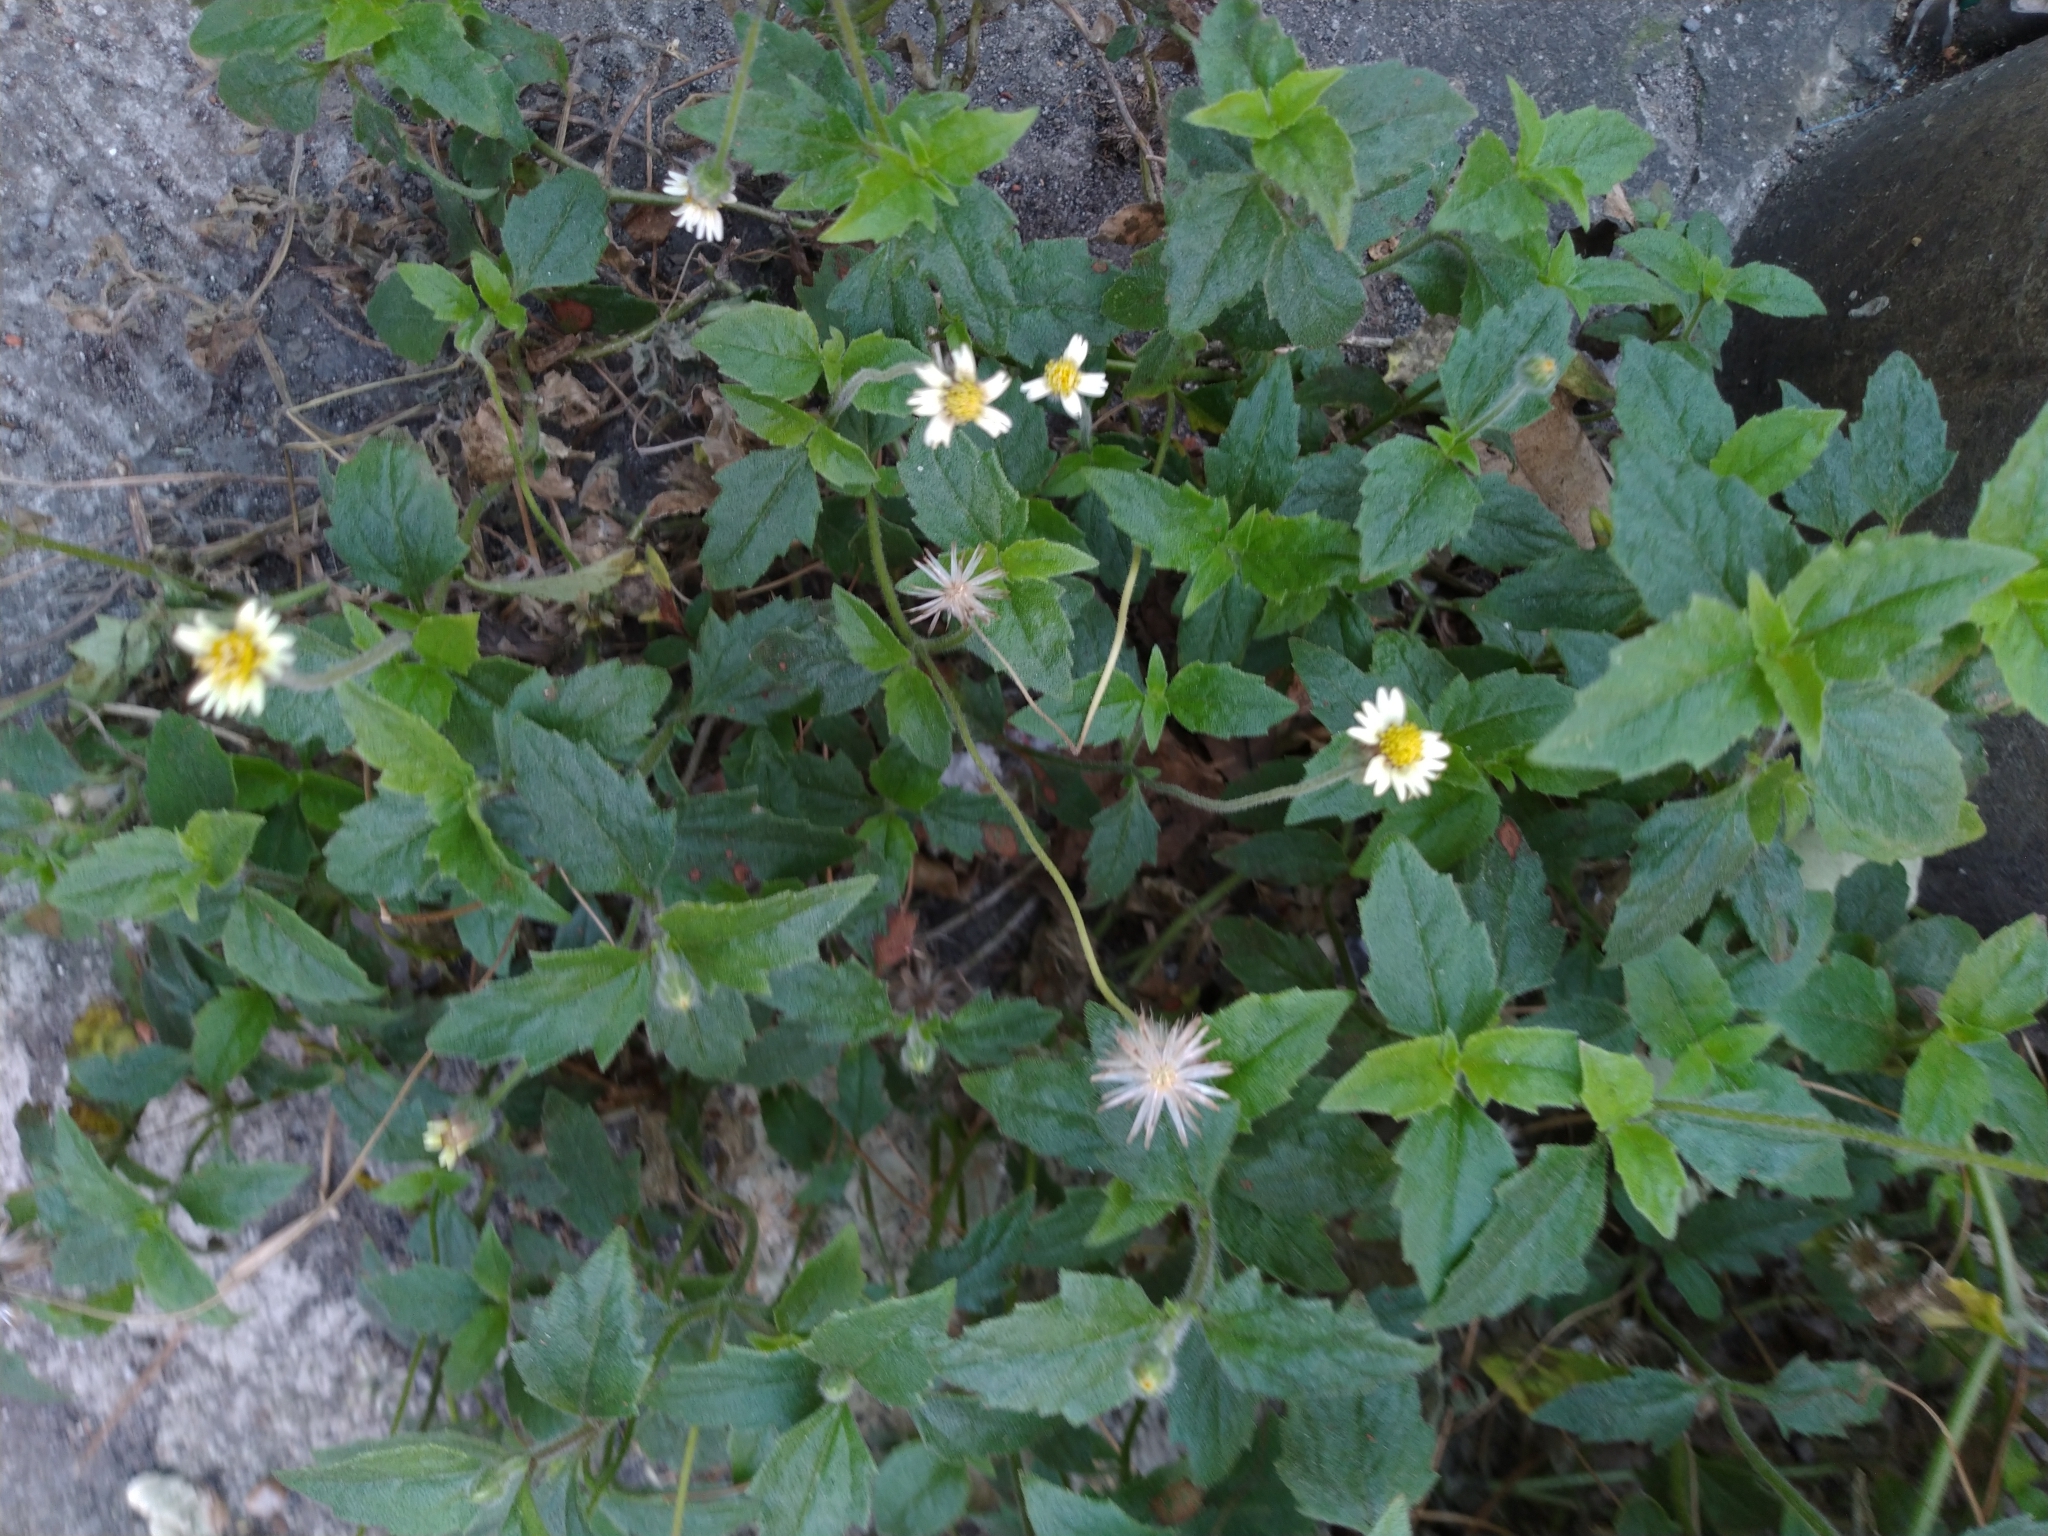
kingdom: Plantae
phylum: Tracheophyta
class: Magnoliopsida
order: Asterales
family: Asteraceae
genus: Tridax
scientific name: Tridax procumbens
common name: Coatbuttons
